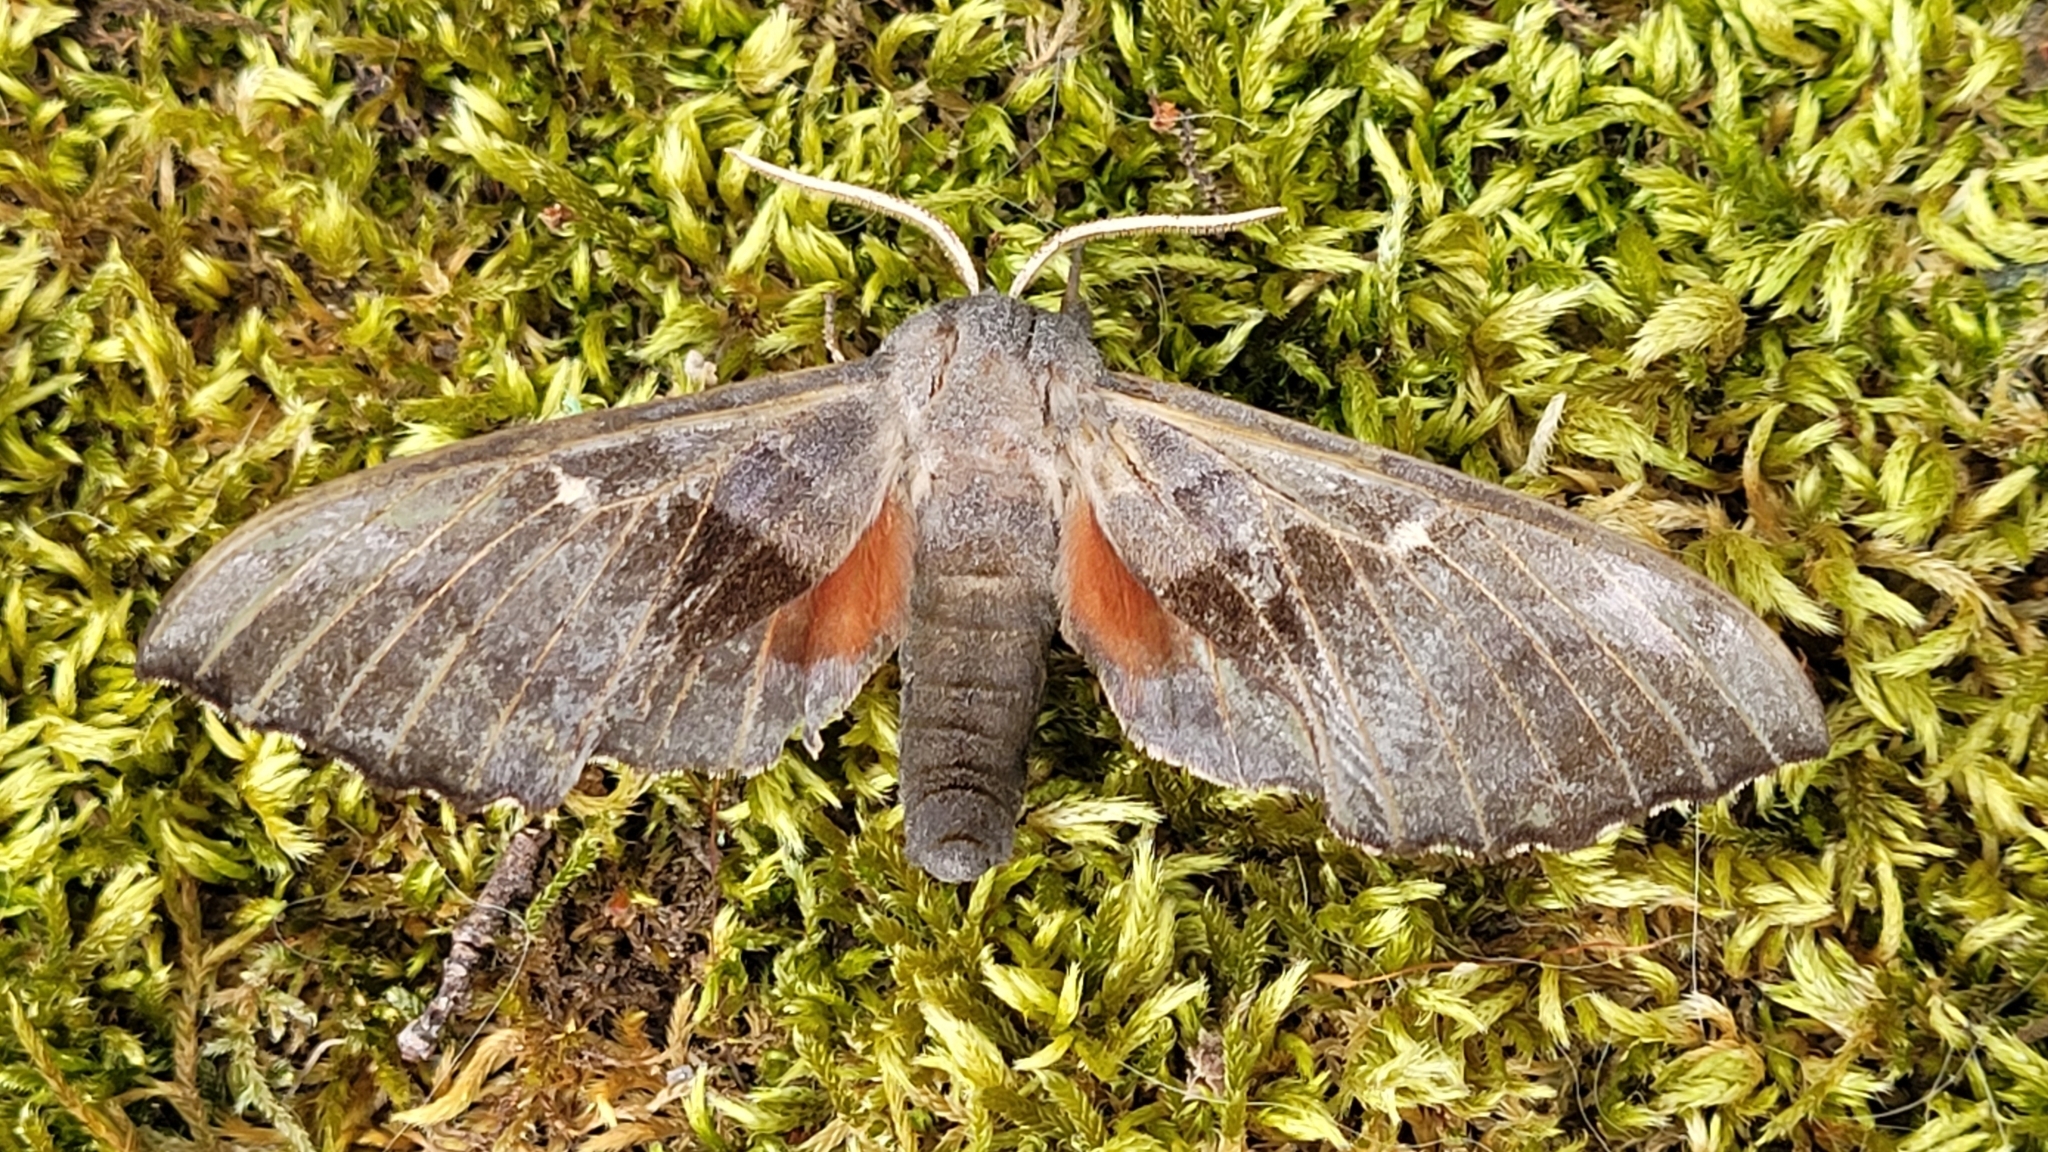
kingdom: Animalia
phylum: Arthropoda
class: Insecta
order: Lepidoptera
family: Sphingidae
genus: Laothoe
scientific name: Laothoe populi
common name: Poplar hawk-moth
